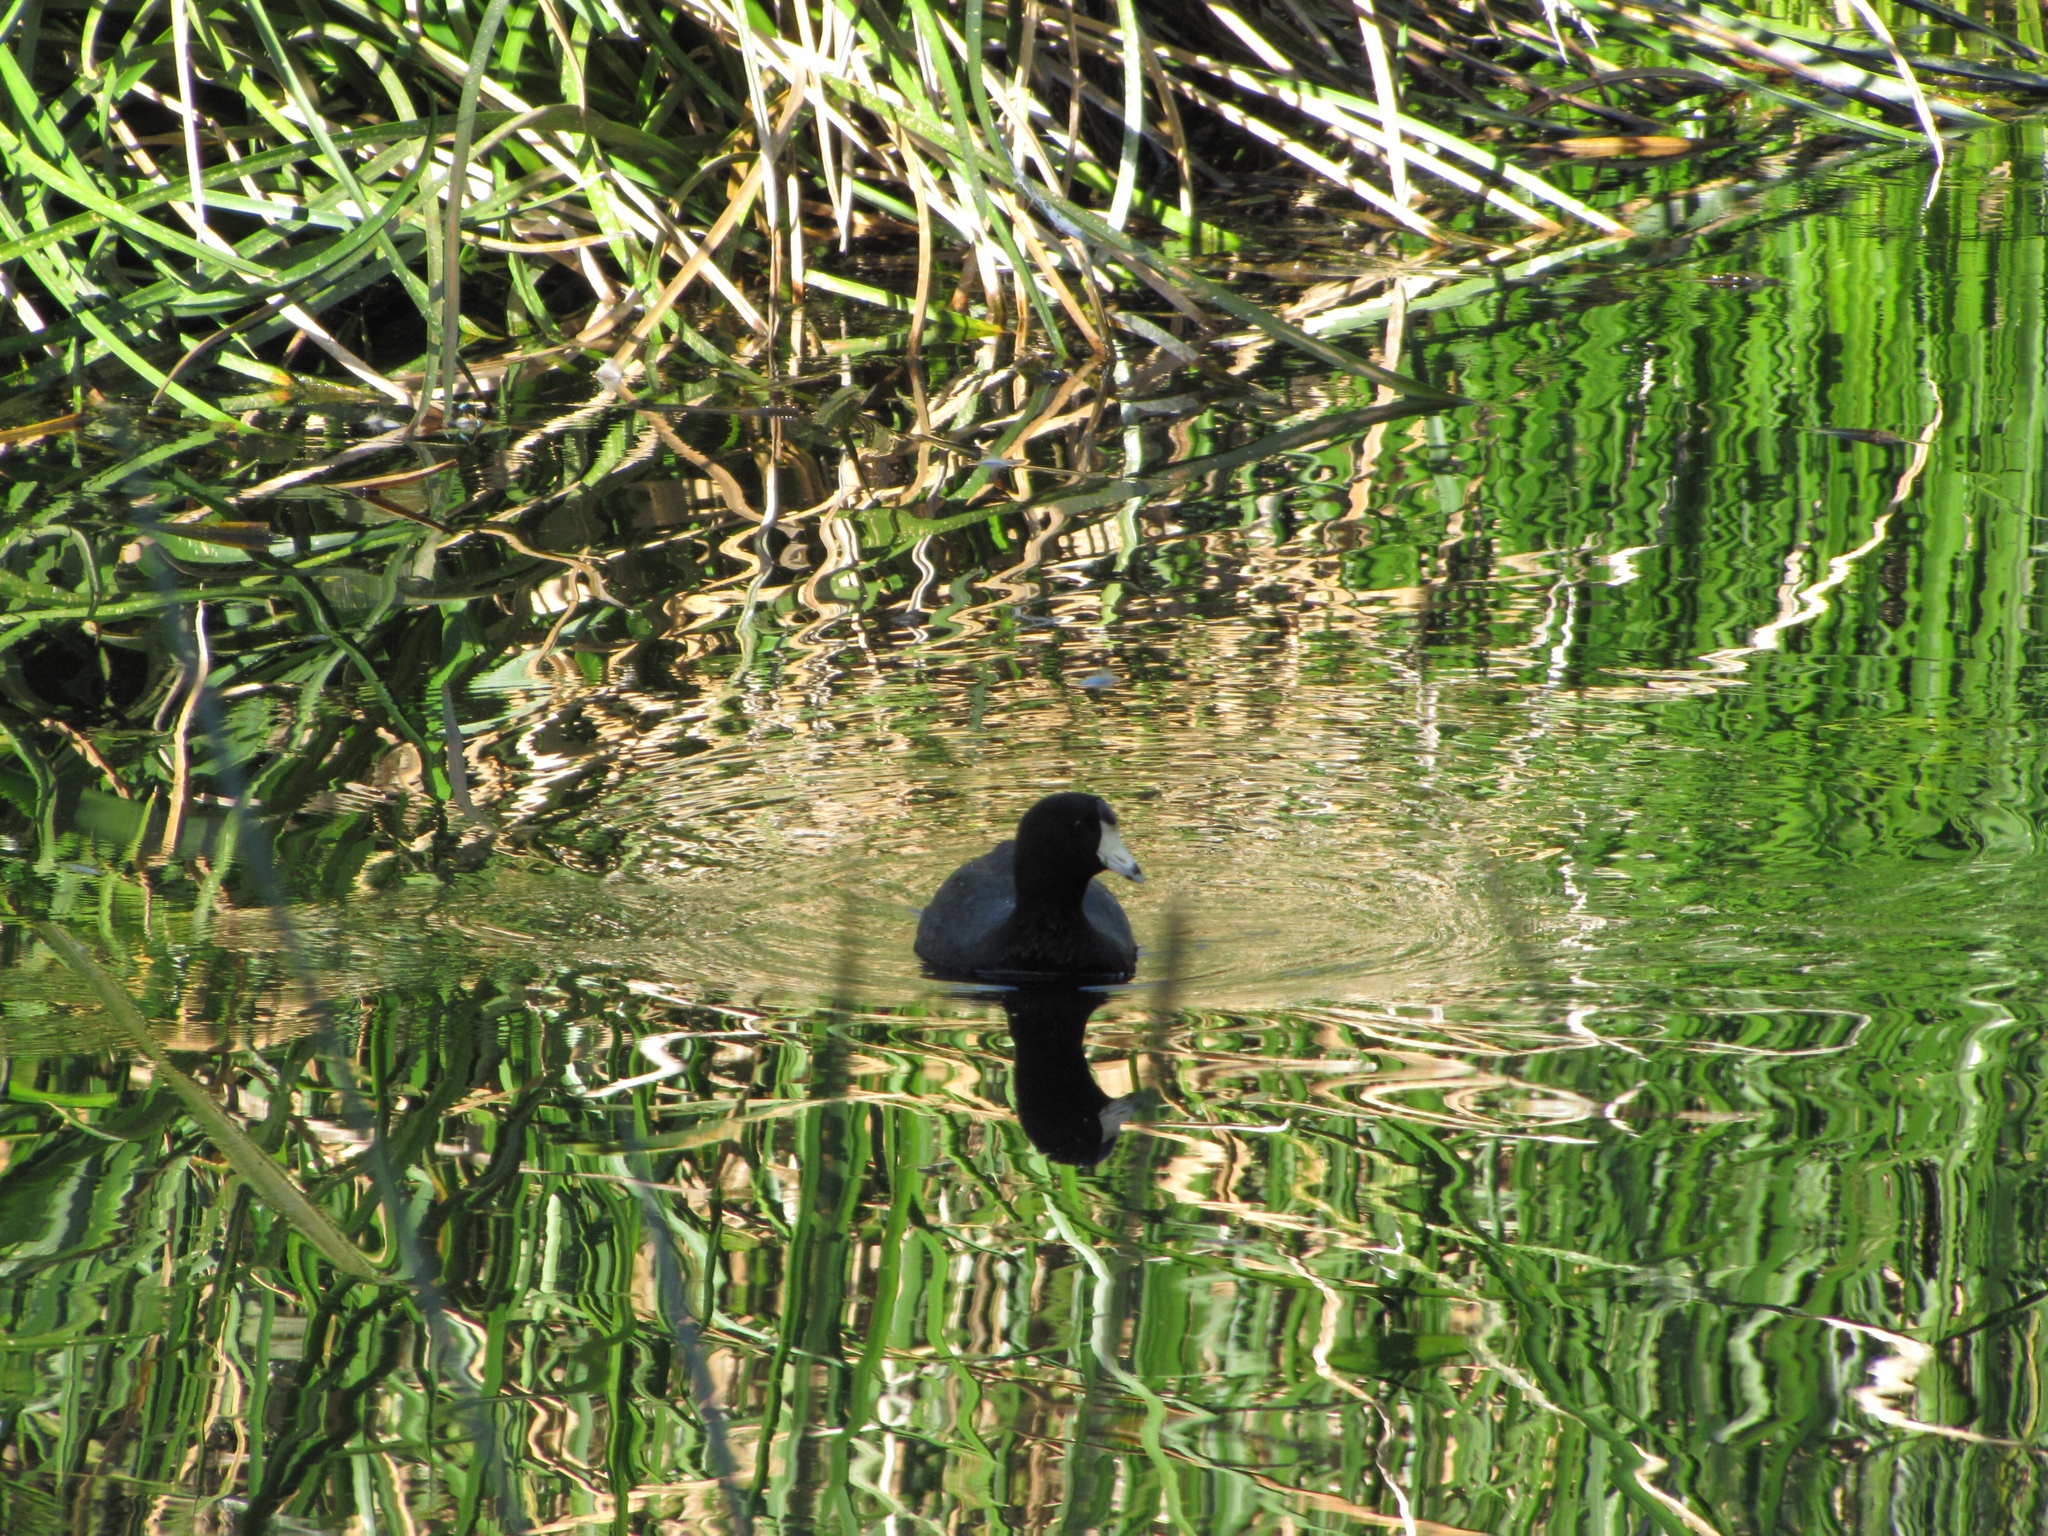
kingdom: Animalia
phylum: Chordata
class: Aves
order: Gruiformes
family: Rallidae
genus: Fulica
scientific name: Fulica americana
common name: American coot
